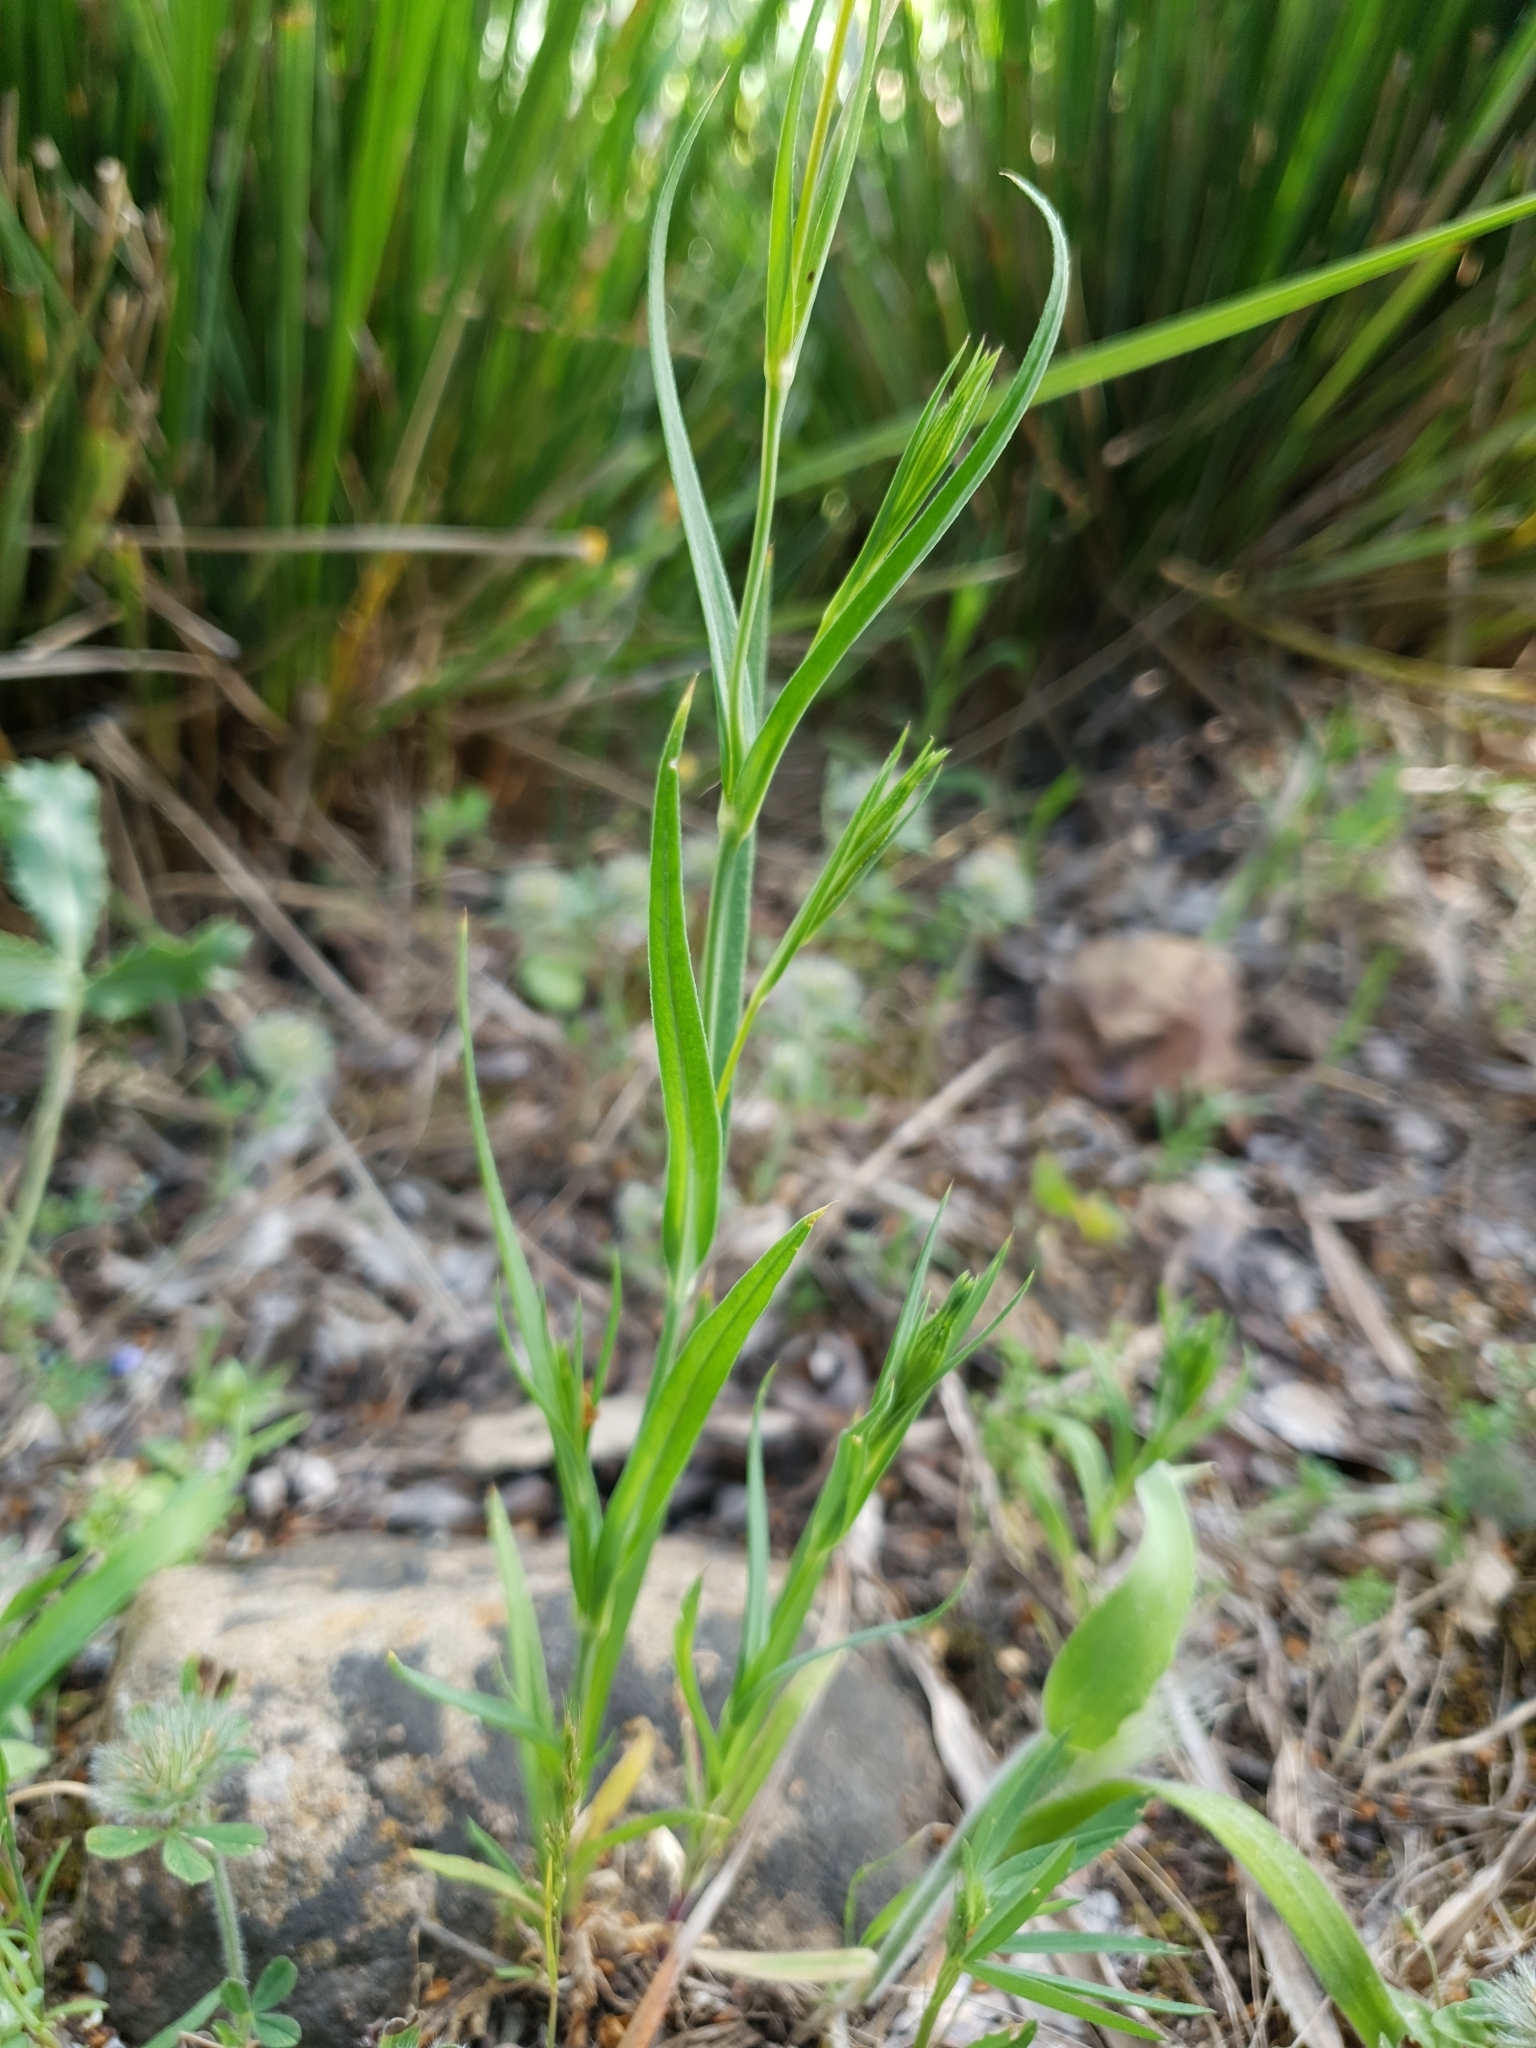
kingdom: Plantae
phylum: Tracheophyta
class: Magnoliopsida
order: Caryophyllales
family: Caryophyllaceae
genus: Eudianthe
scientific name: Eudianthe coeli-rosa
